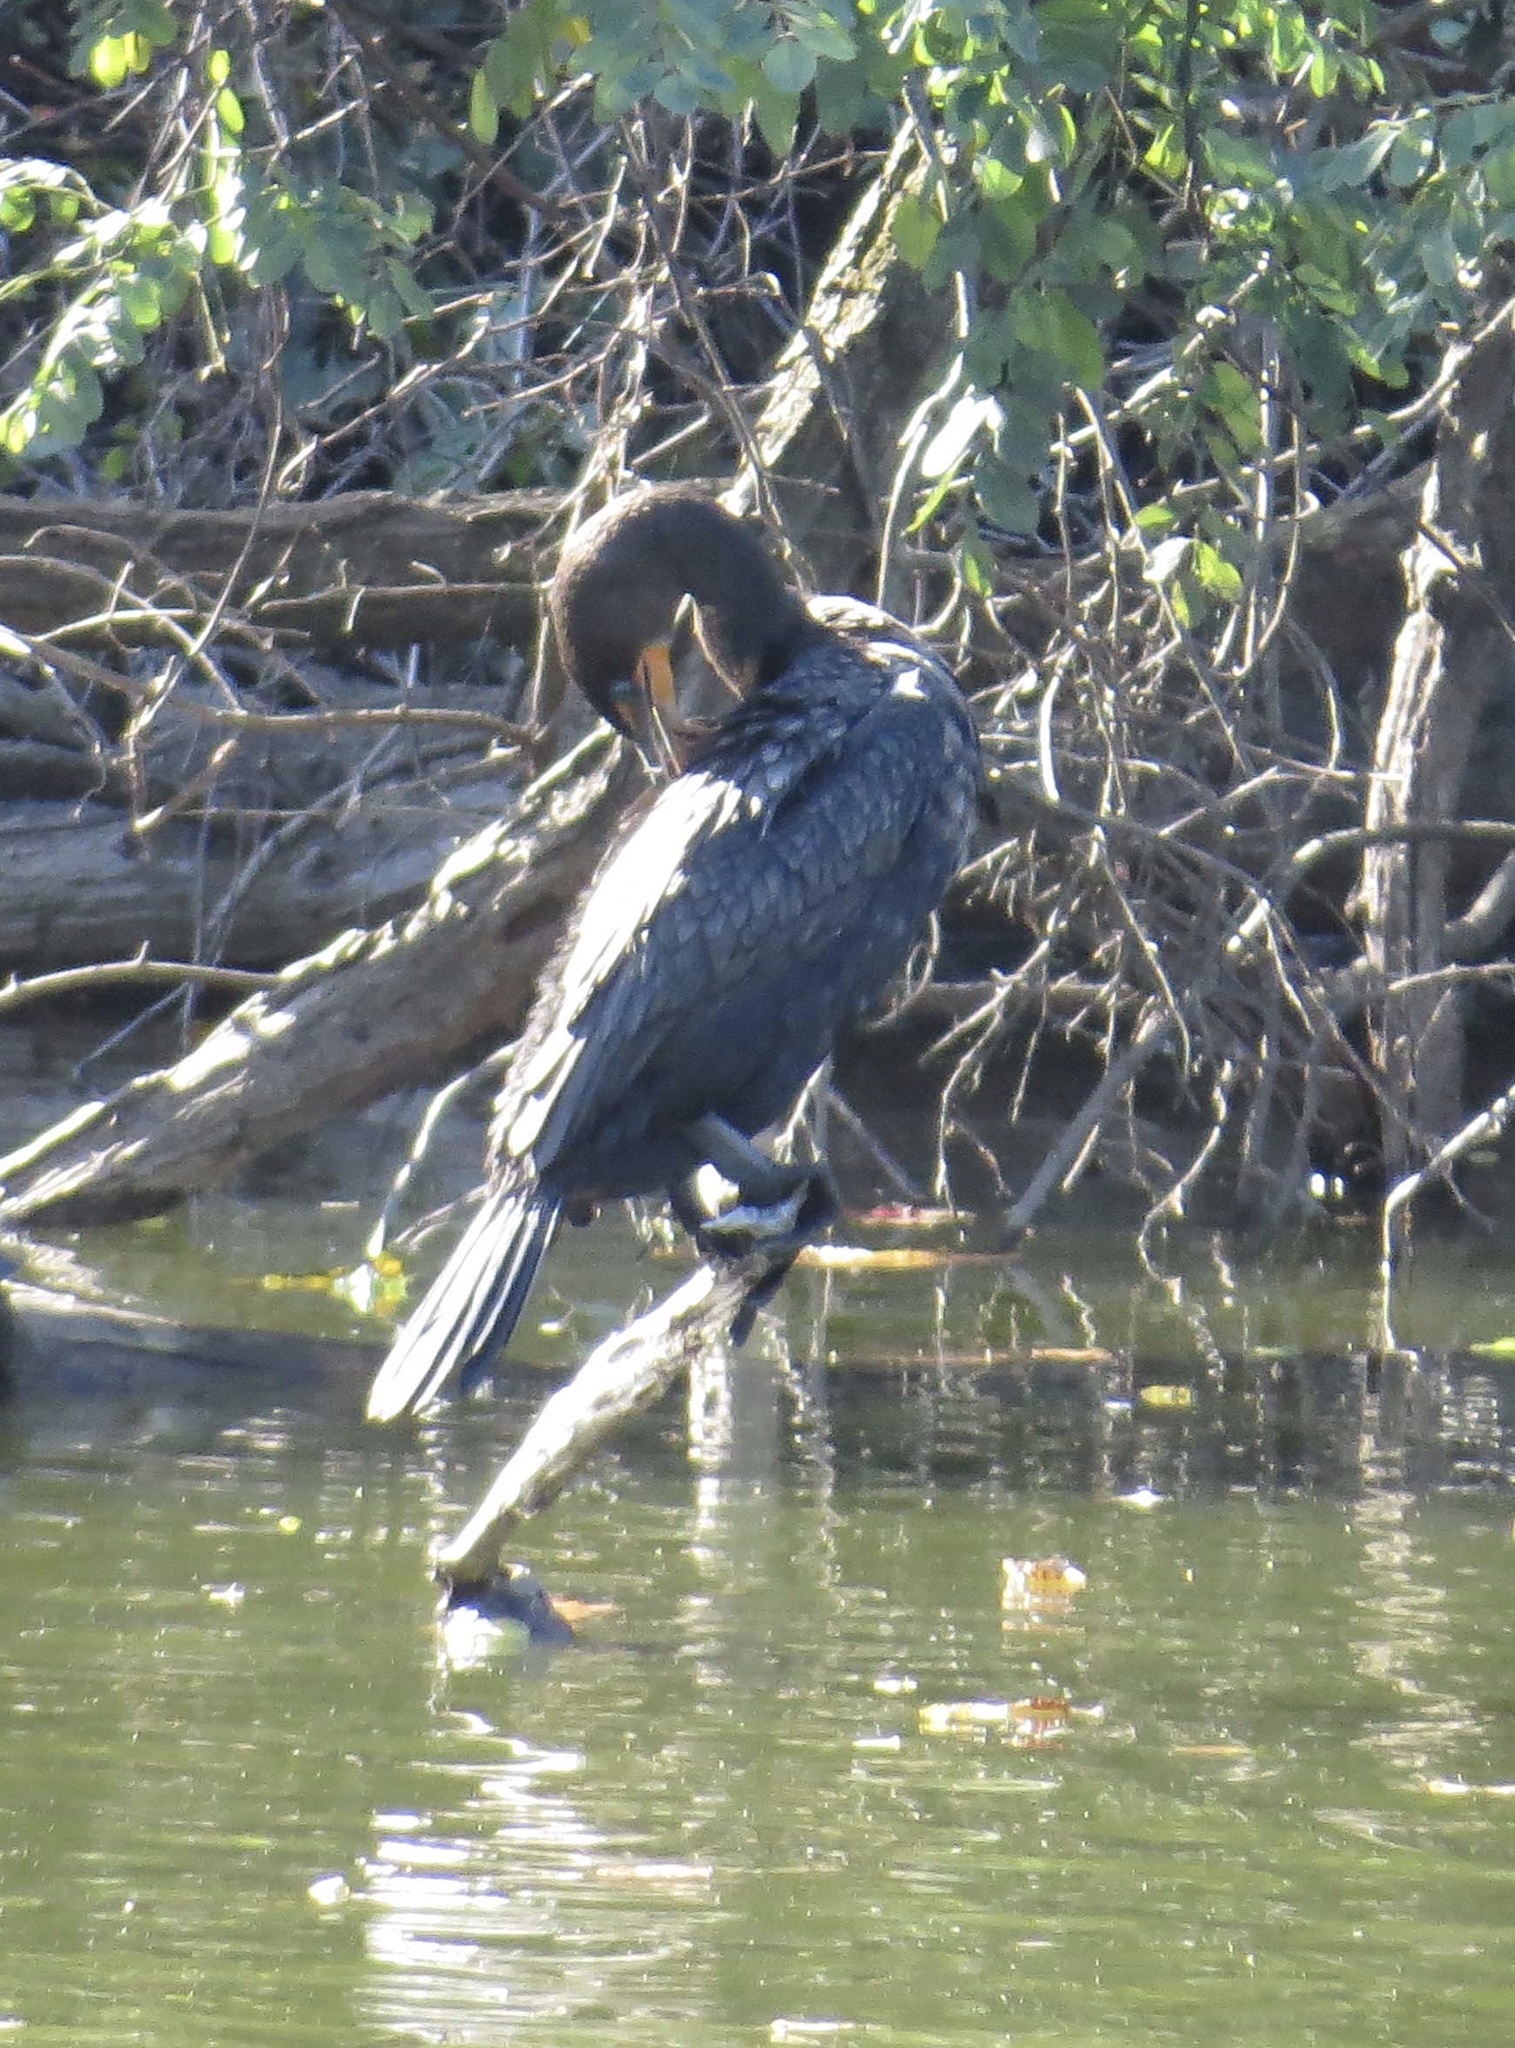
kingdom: Animalia
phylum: Chordata
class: Aves
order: Suliformes
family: Phalacrocoracidae
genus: Phalacrocorax
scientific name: Phalacrocorax auritus
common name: Double-crested cormorant
